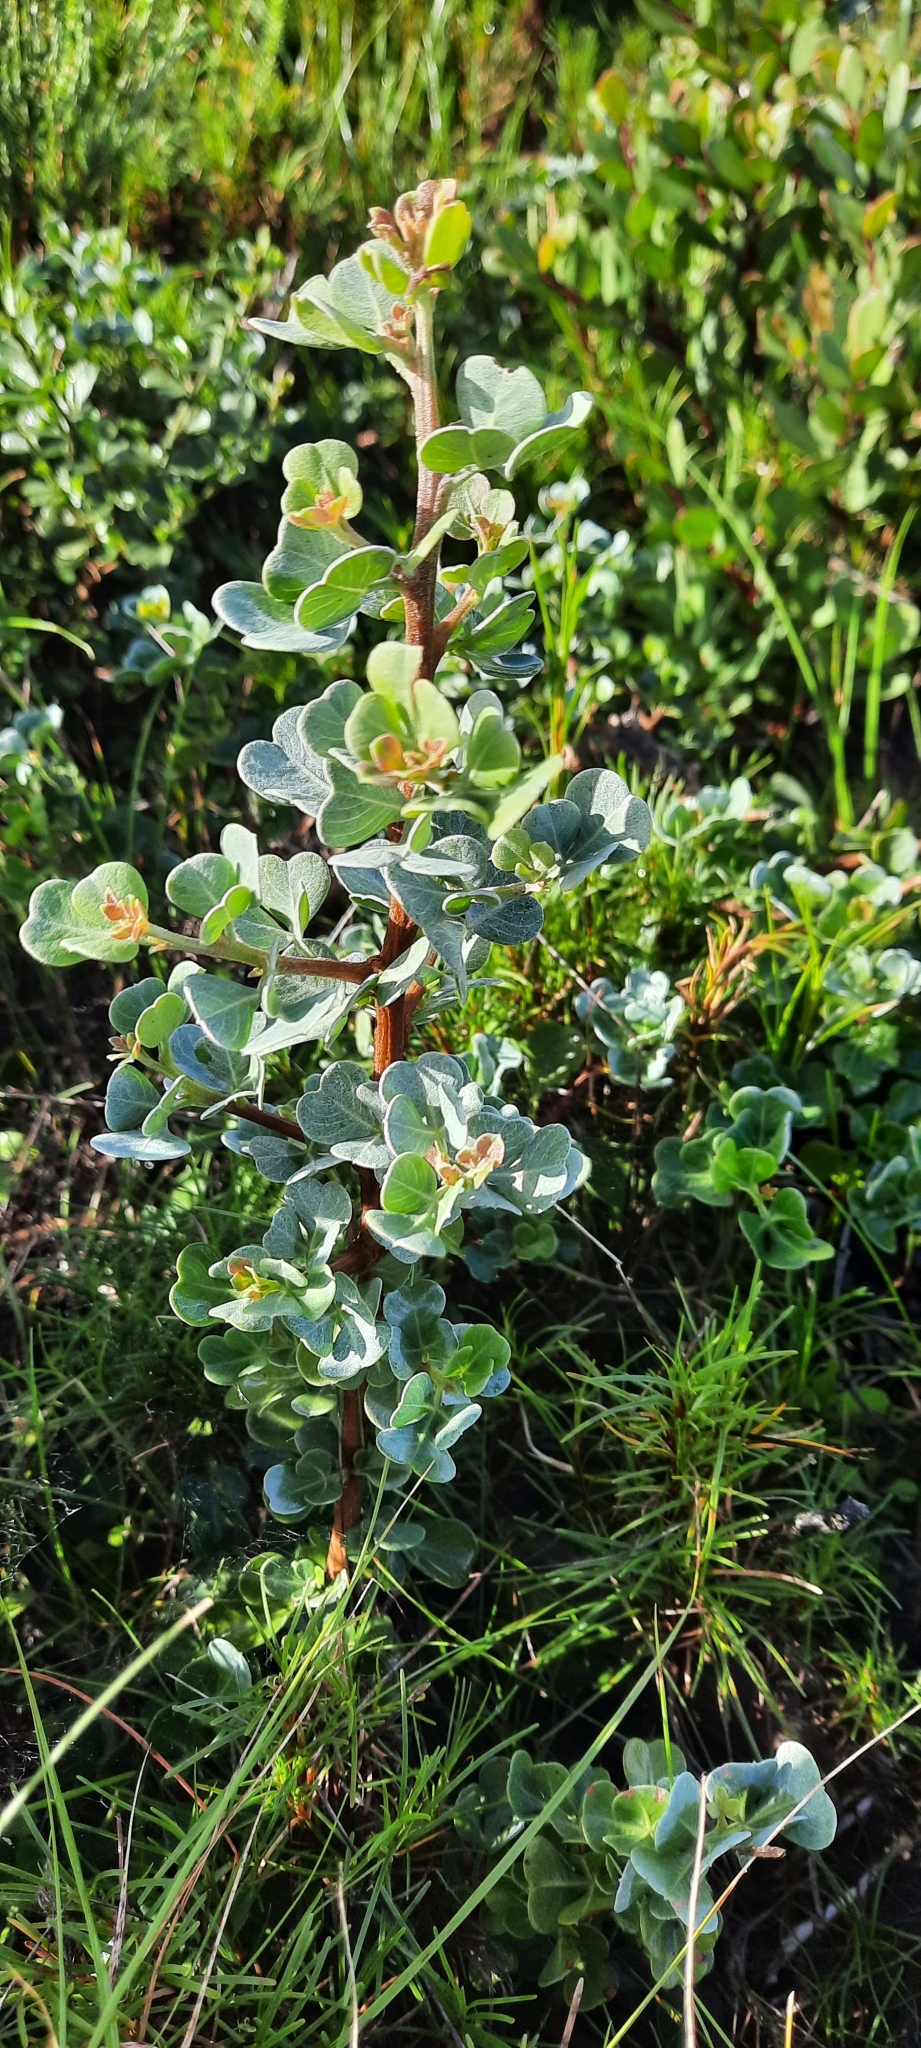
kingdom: Plantae
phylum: Tracheophyta
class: Magnoliopsida
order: Sapindales
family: Anacardiaceae
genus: Searsia
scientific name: Searsia glauca
